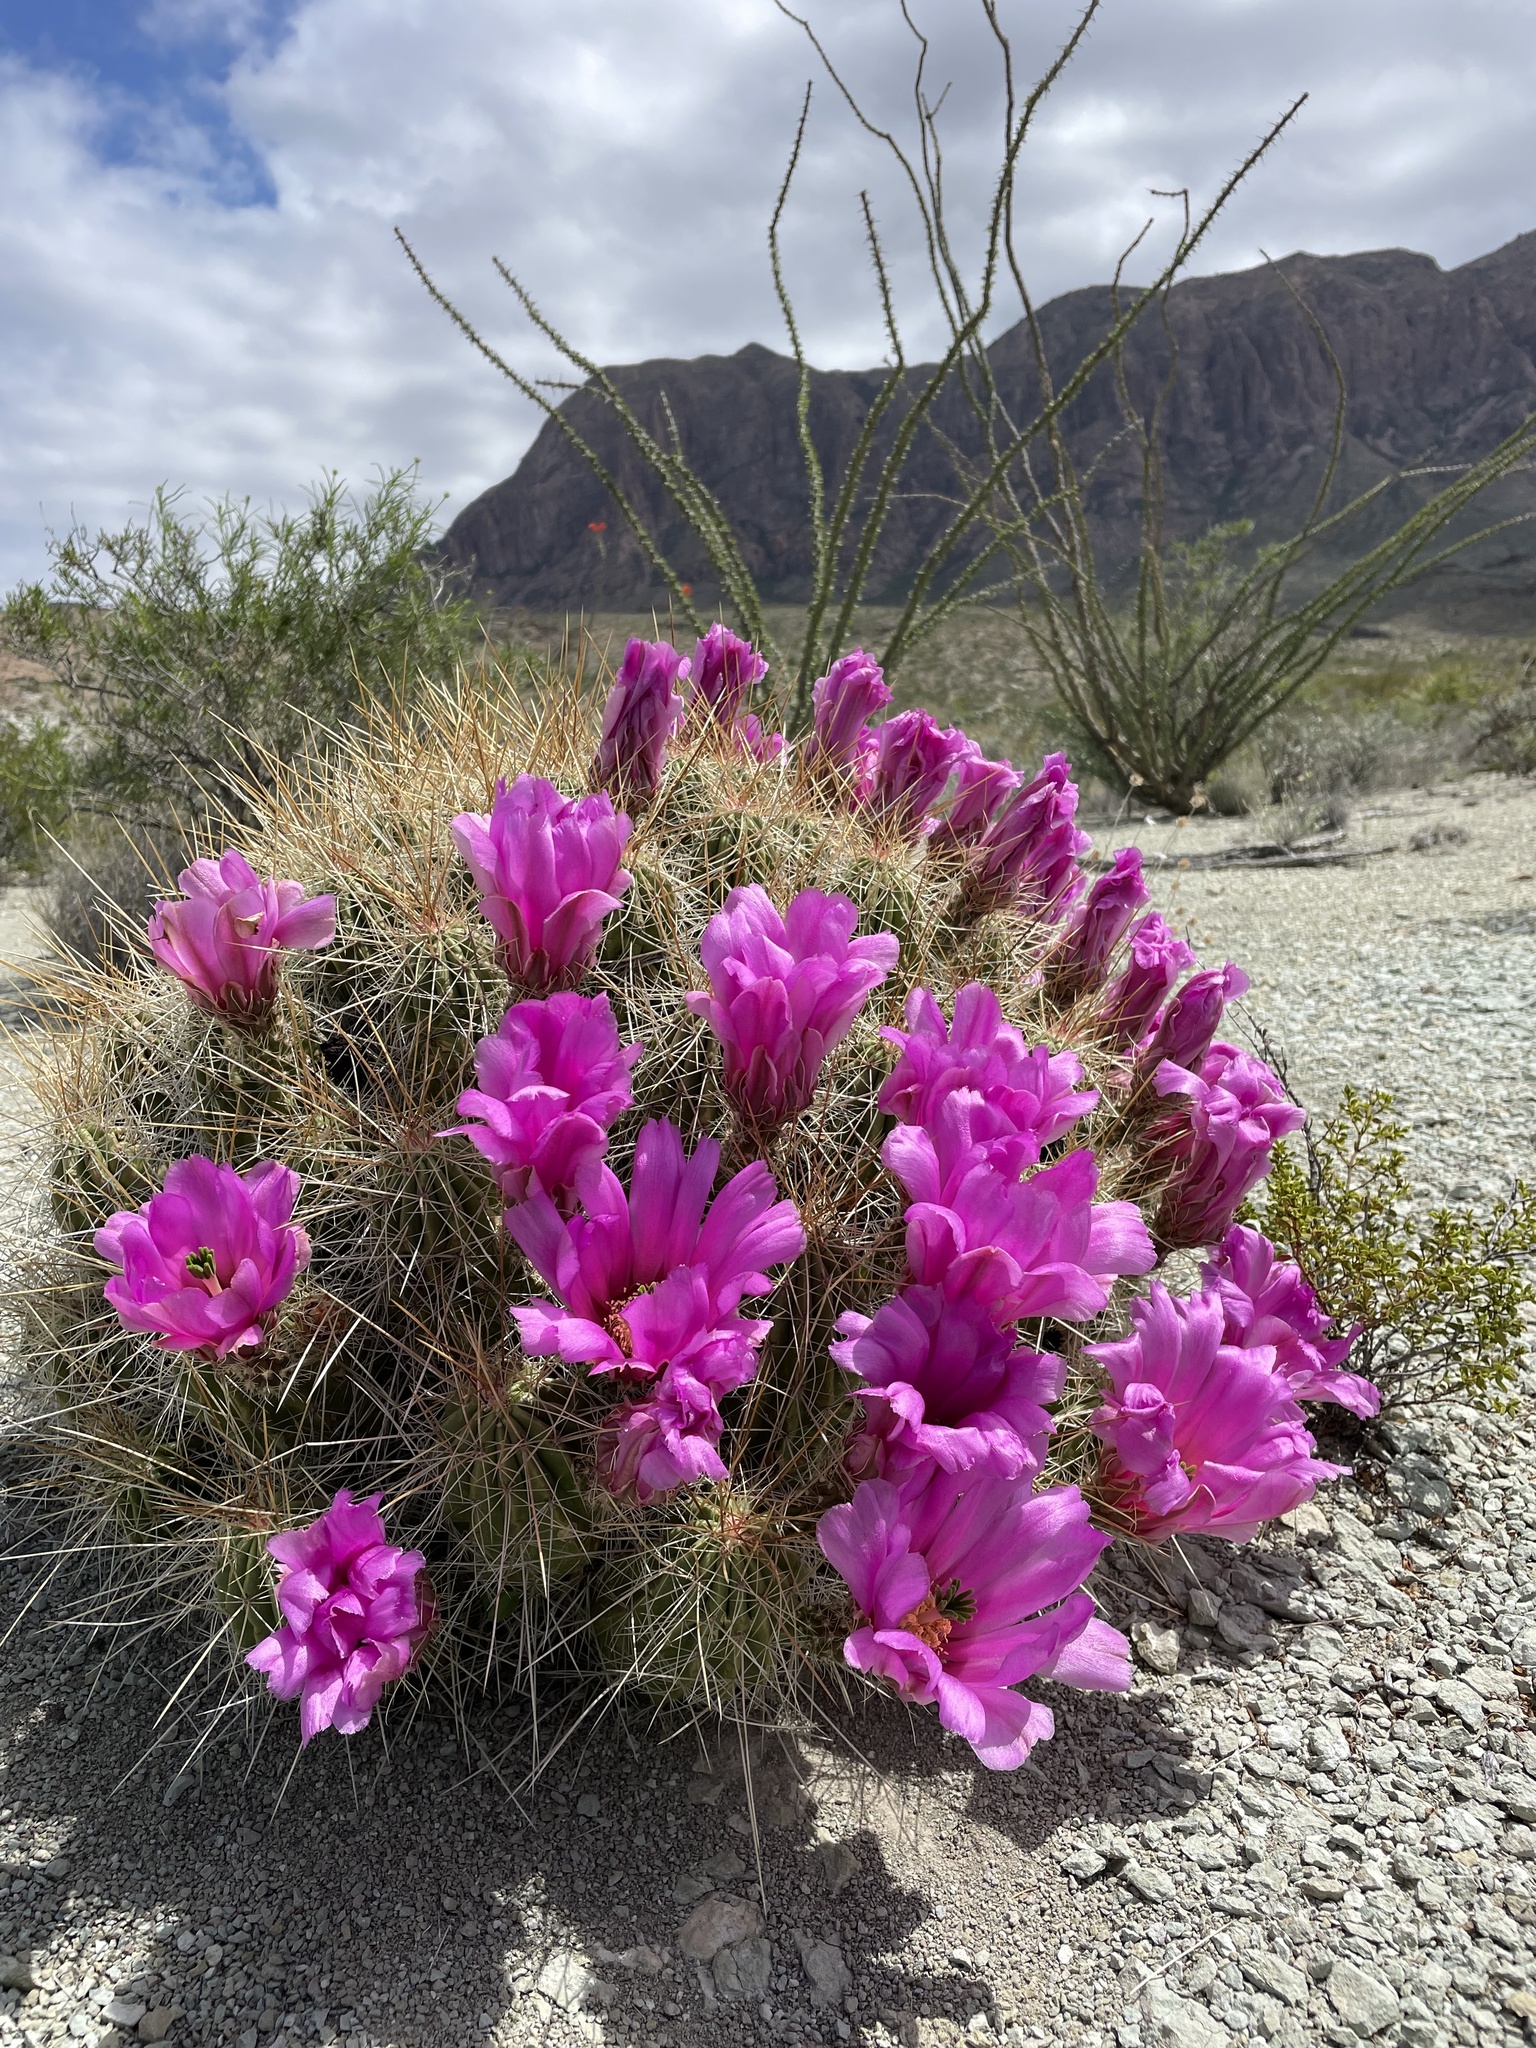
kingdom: Plantae
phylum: Tracheophyta
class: Magnoliopsida
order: Caryophyllales
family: Cactaceae
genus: Echinocereus
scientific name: Echinocereus stramineus
